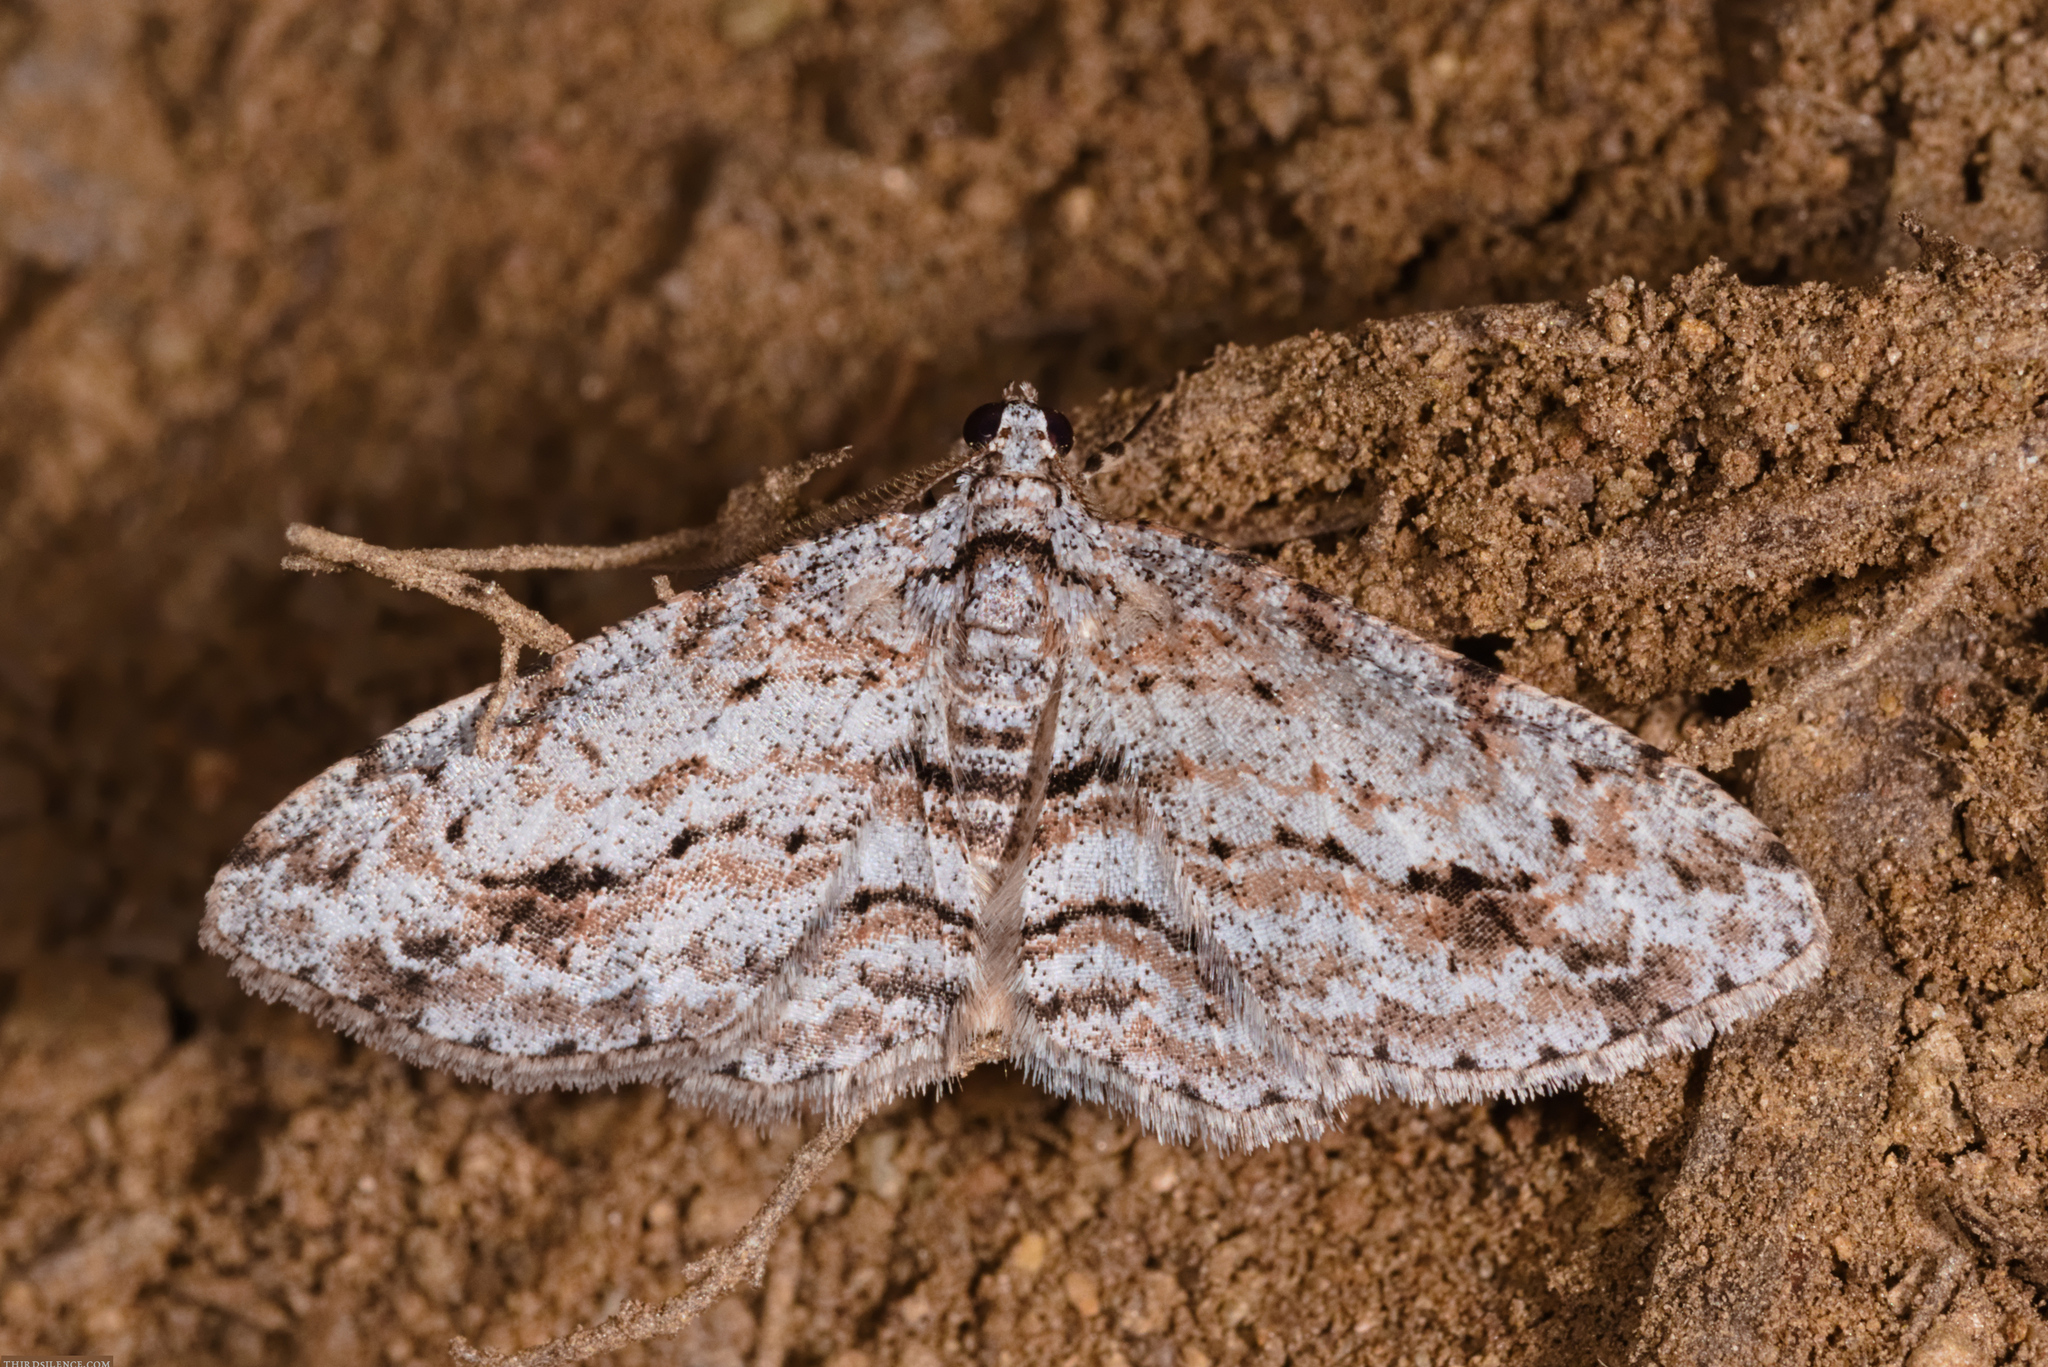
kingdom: Animalia
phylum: Arthropoda
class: Insecta
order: Lepidoptera
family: Geometridae
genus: Didymoctenia
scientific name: Didymoctenia exsuperata
